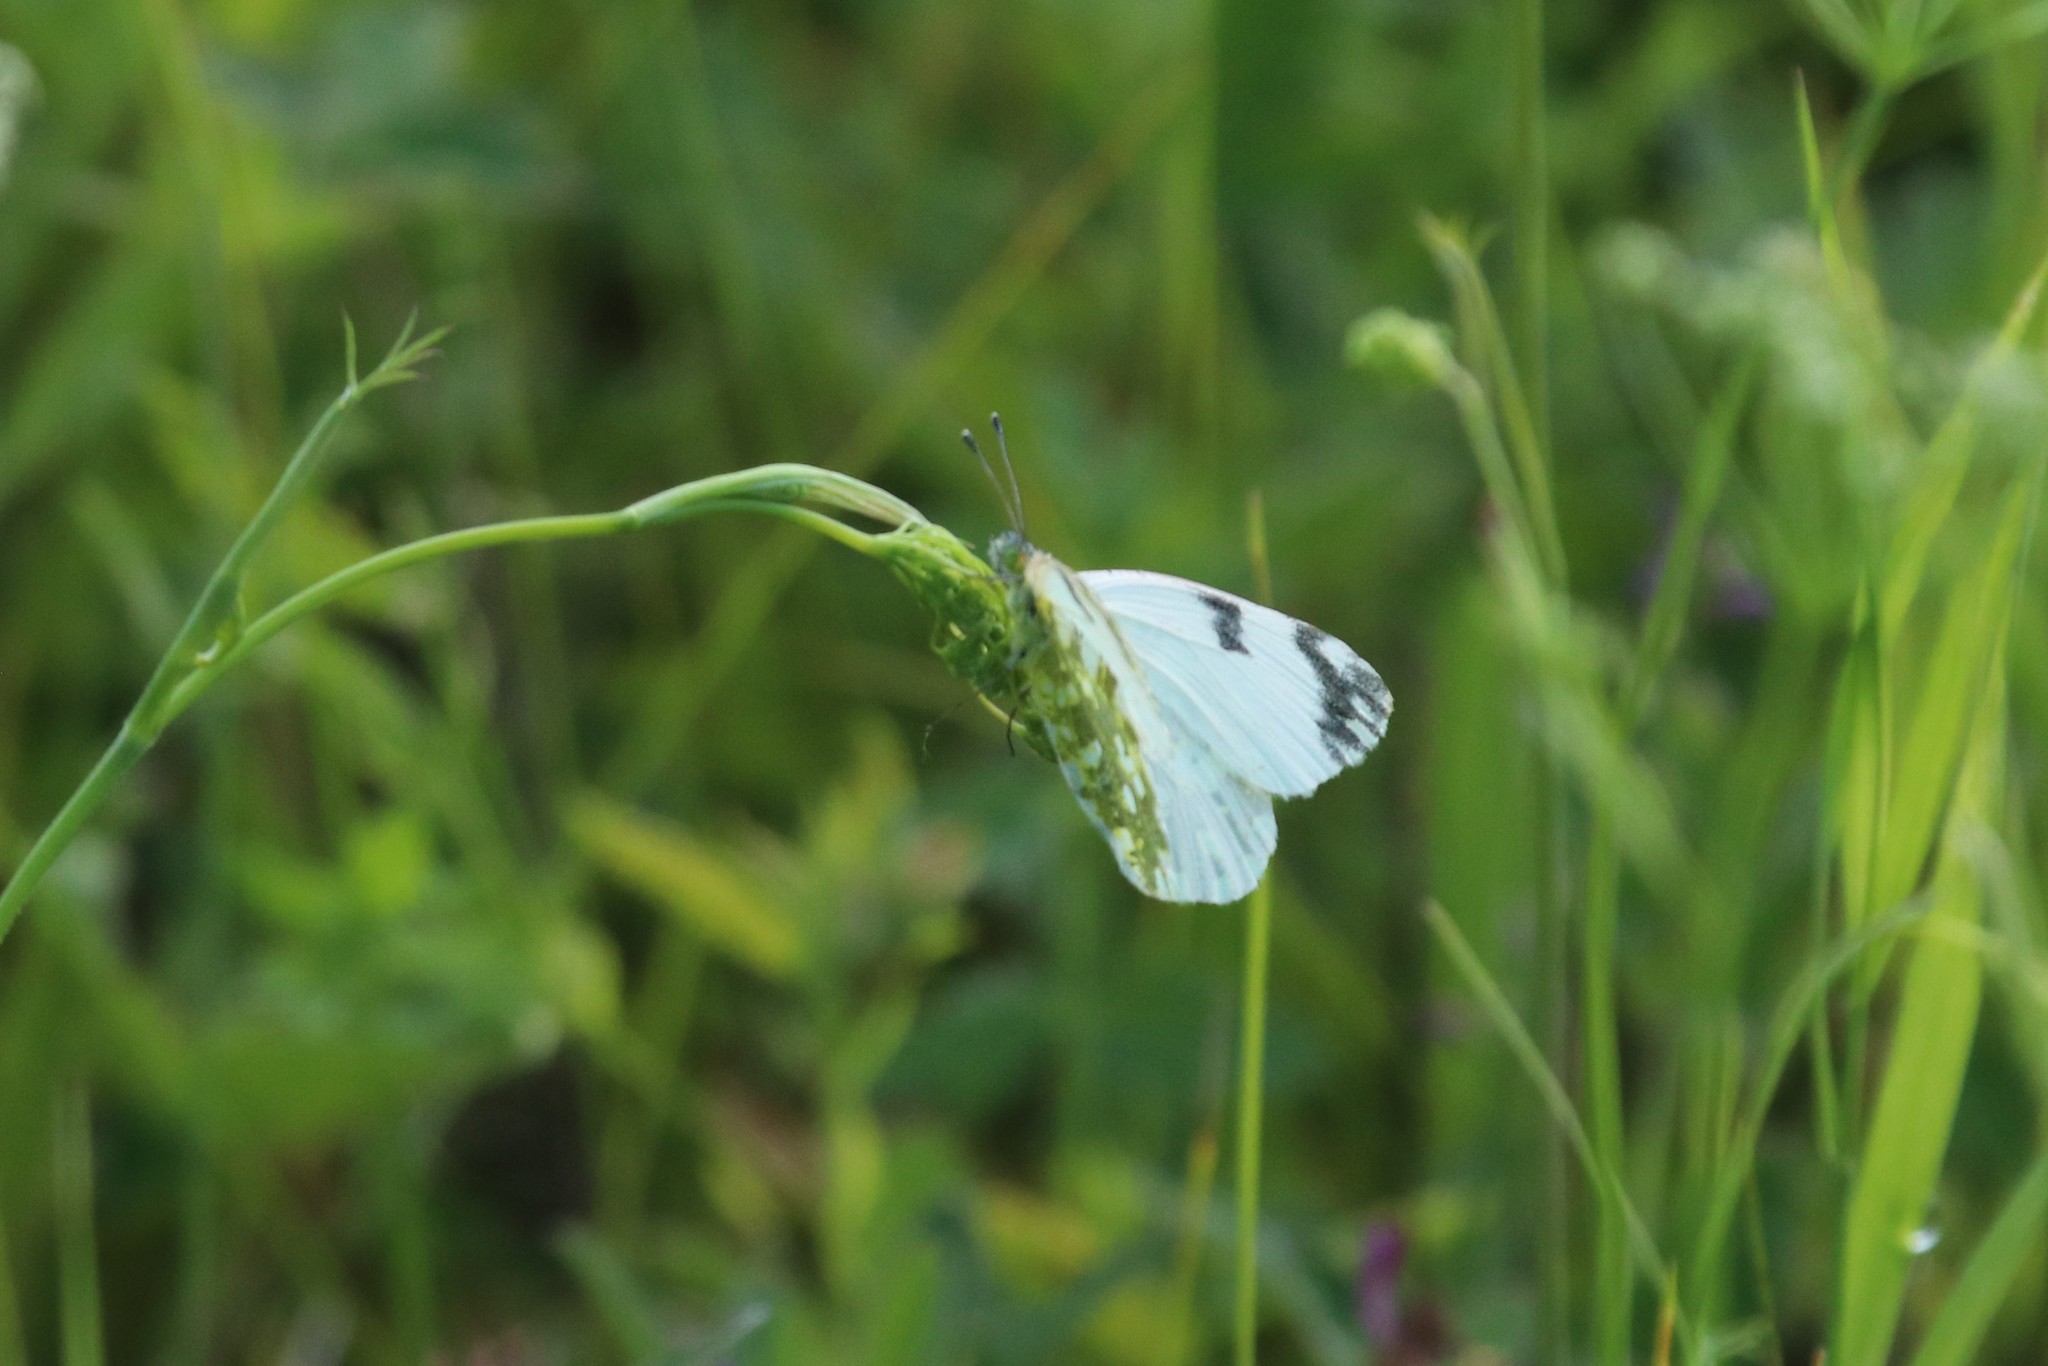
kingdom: Animalia
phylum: Arthropoda
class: Insecta
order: Lepidoptera
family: Pieridae
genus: Euchloe
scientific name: Euchloe ausonia
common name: Eastern dappled white
